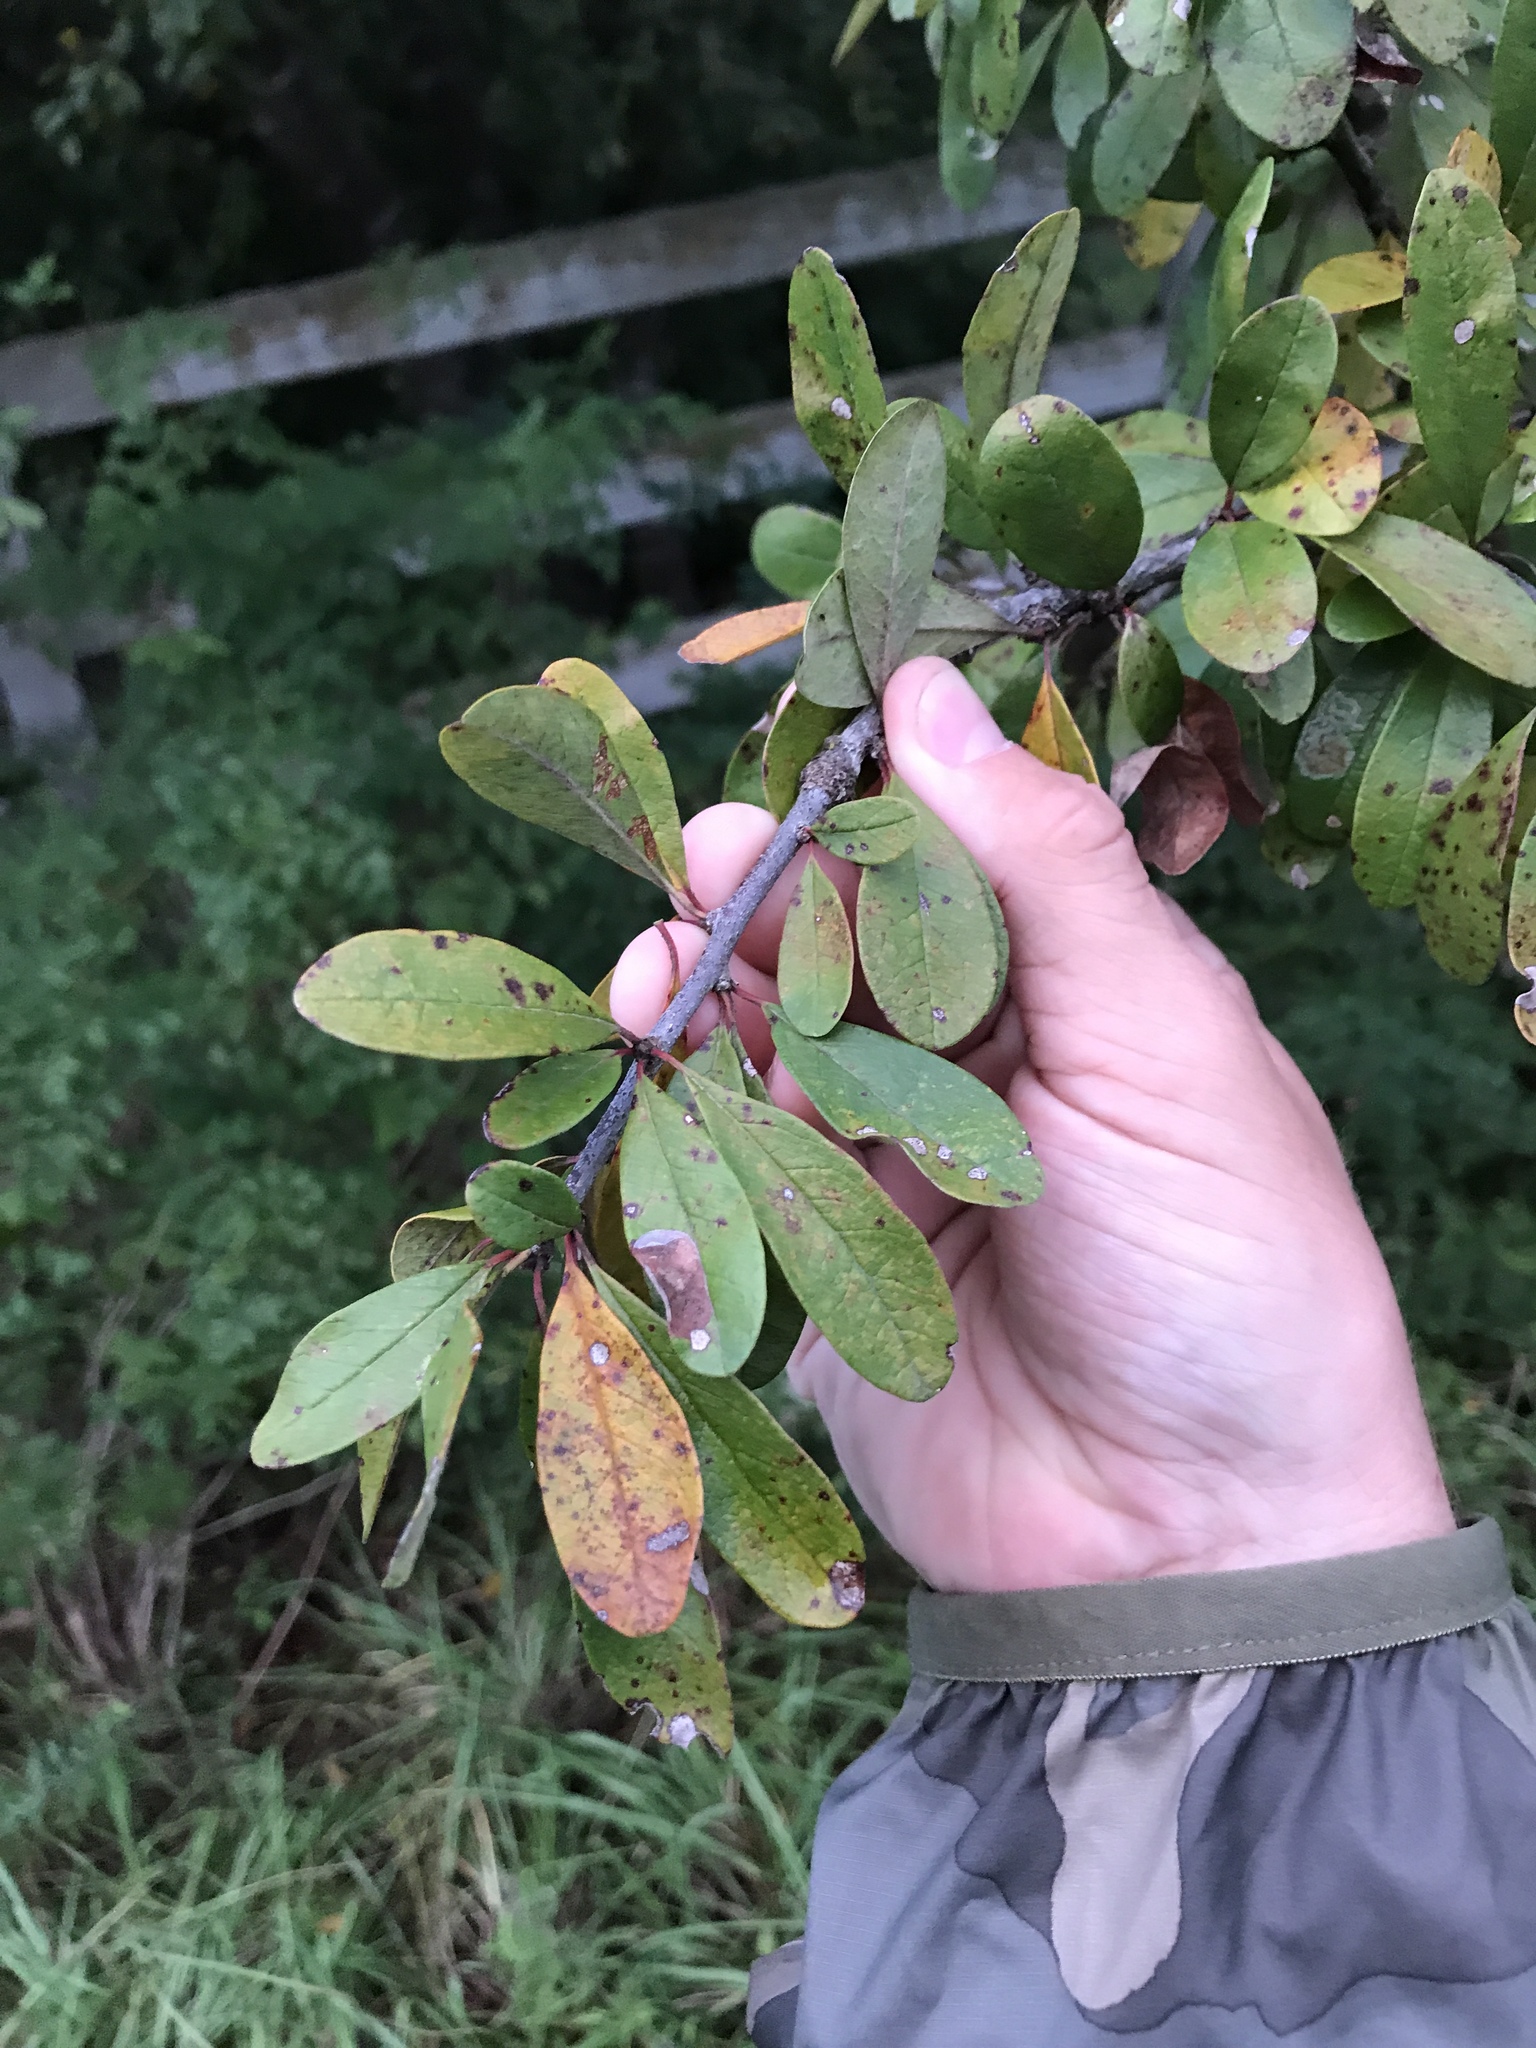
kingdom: Plantae
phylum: Tracheophyta
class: Magnoliopsida
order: Ericales
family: Sapotaceae
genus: Sideroxylon
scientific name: Sideroxylon lanuginosum
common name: Chittamwood
